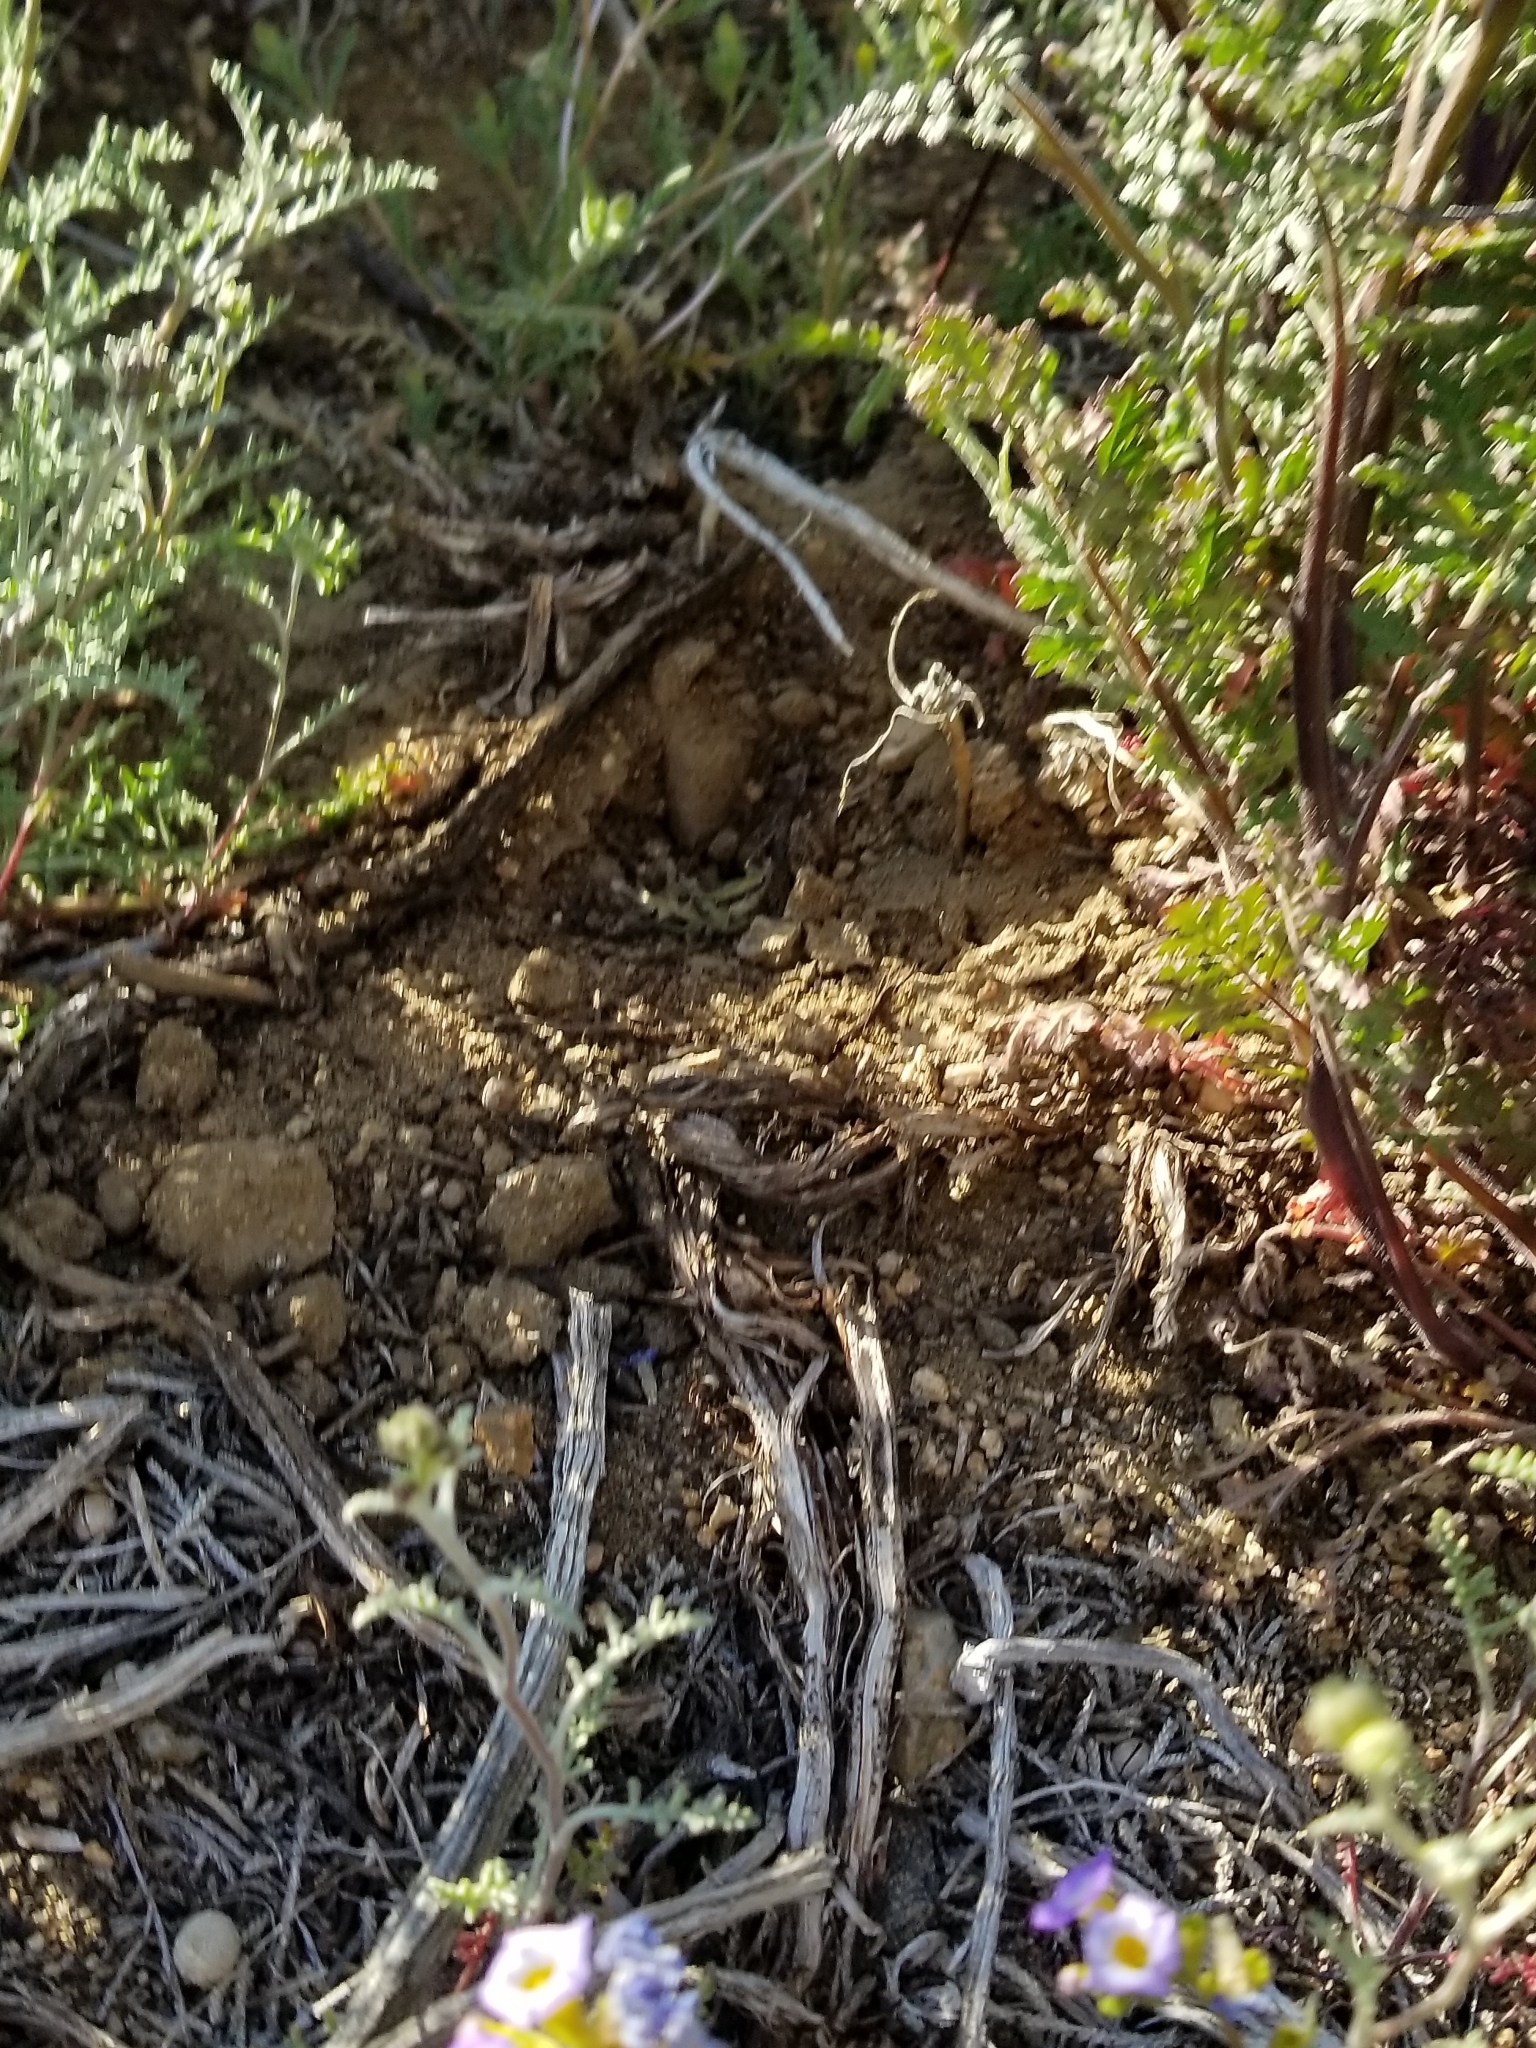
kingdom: Plantae
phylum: Tracheophyta
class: Magnoliopsida
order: Boraginales
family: Hydrophyllaceae
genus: Phacelia
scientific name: Phacelia fremontii
